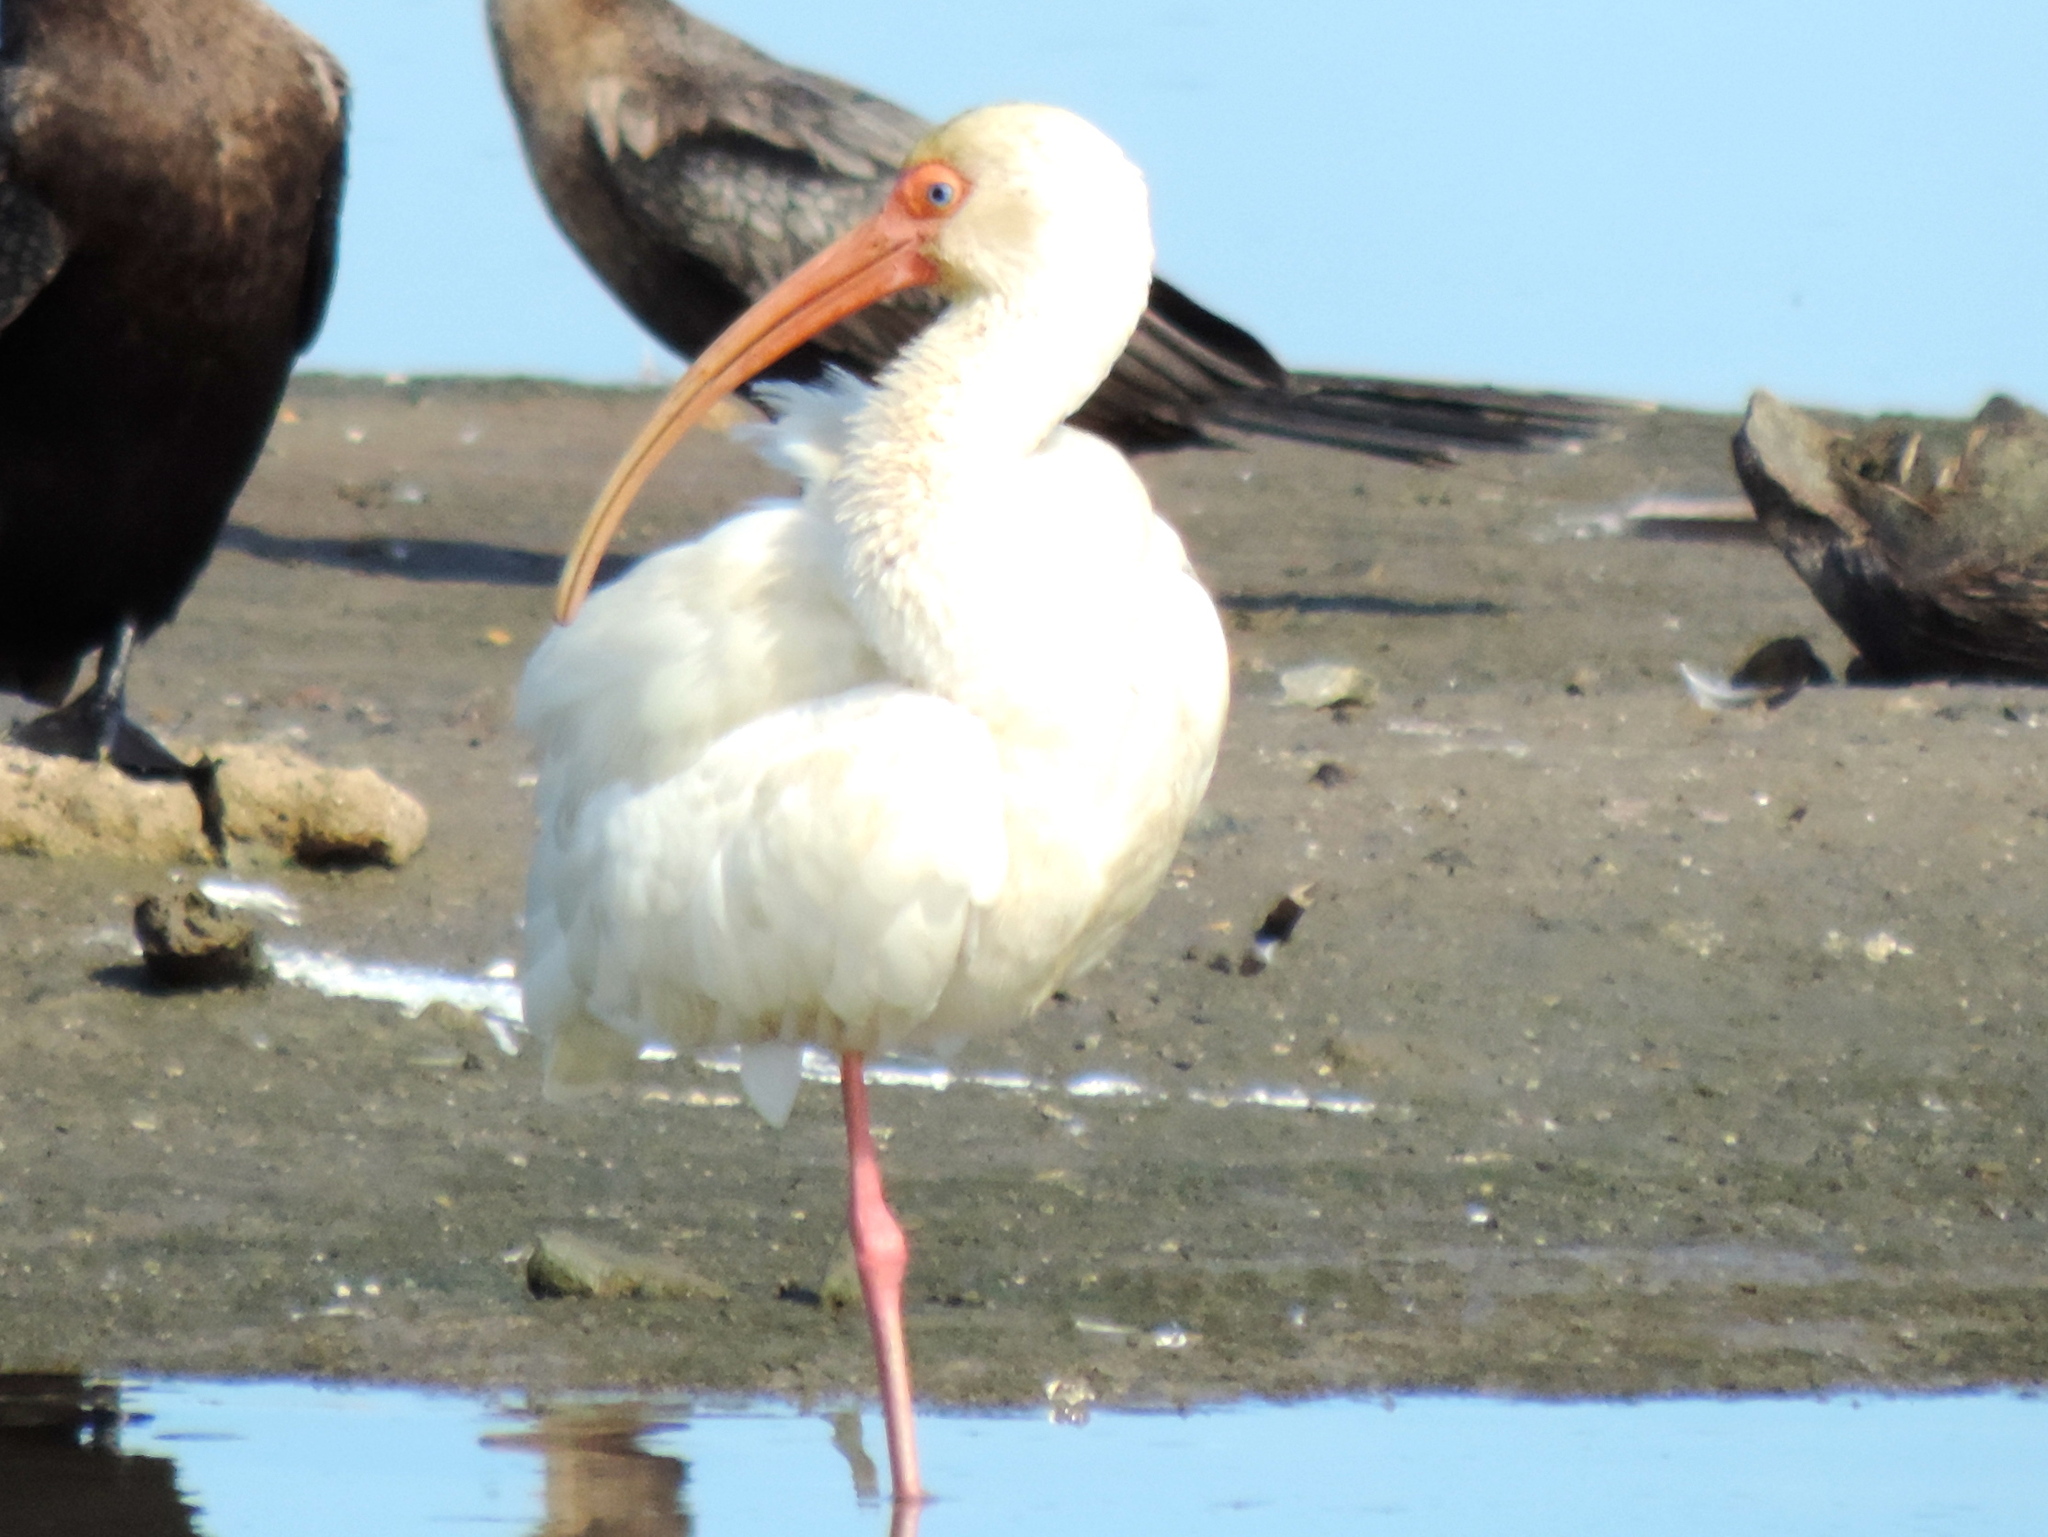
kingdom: Animalia
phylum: Chordata
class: Aves
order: Pelecaniformes
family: Threskiornithidae
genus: Eudocimus
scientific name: Eudocimus albus
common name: White ibis
